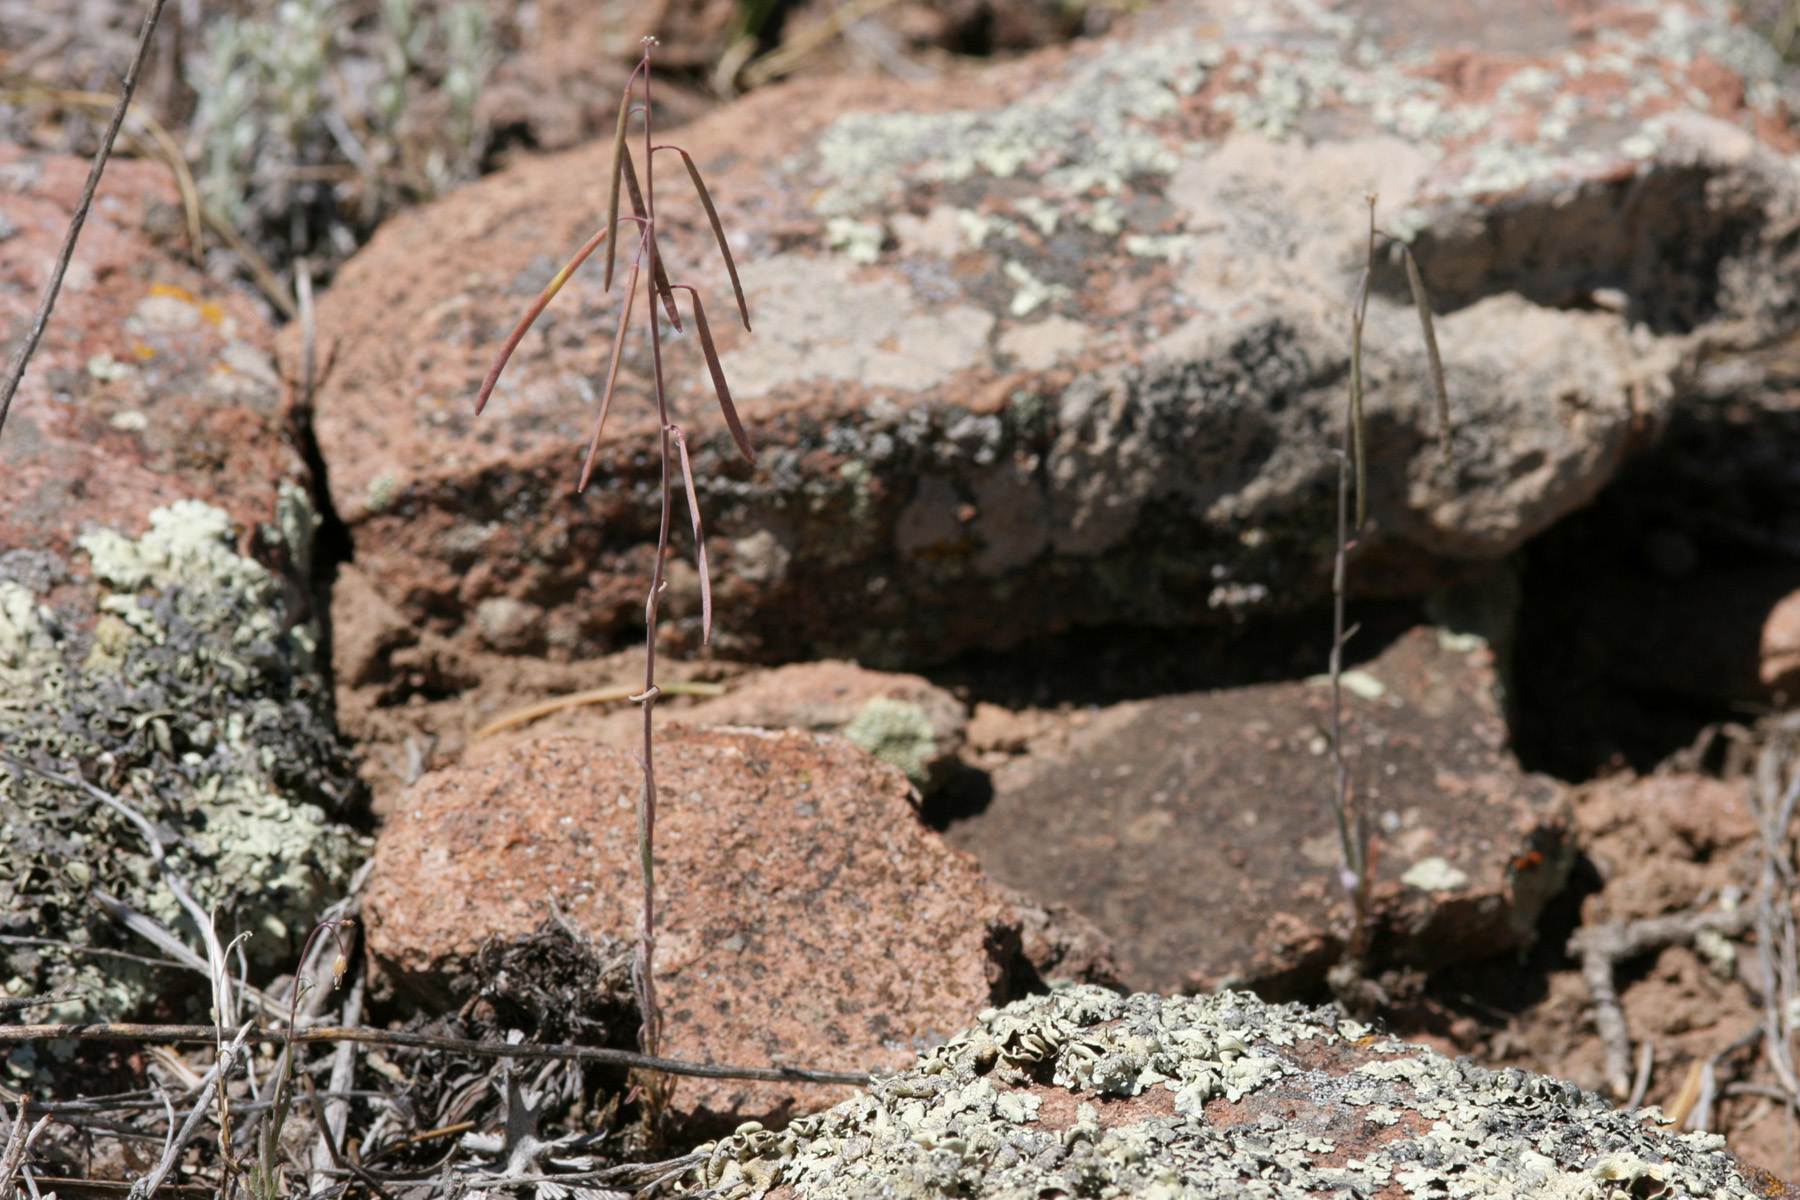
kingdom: Plantae
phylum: Tracheophyta
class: Magnoliopsida
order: Brassicales
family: Brassicaceae
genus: Boechera
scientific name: Boechera spatifolia
